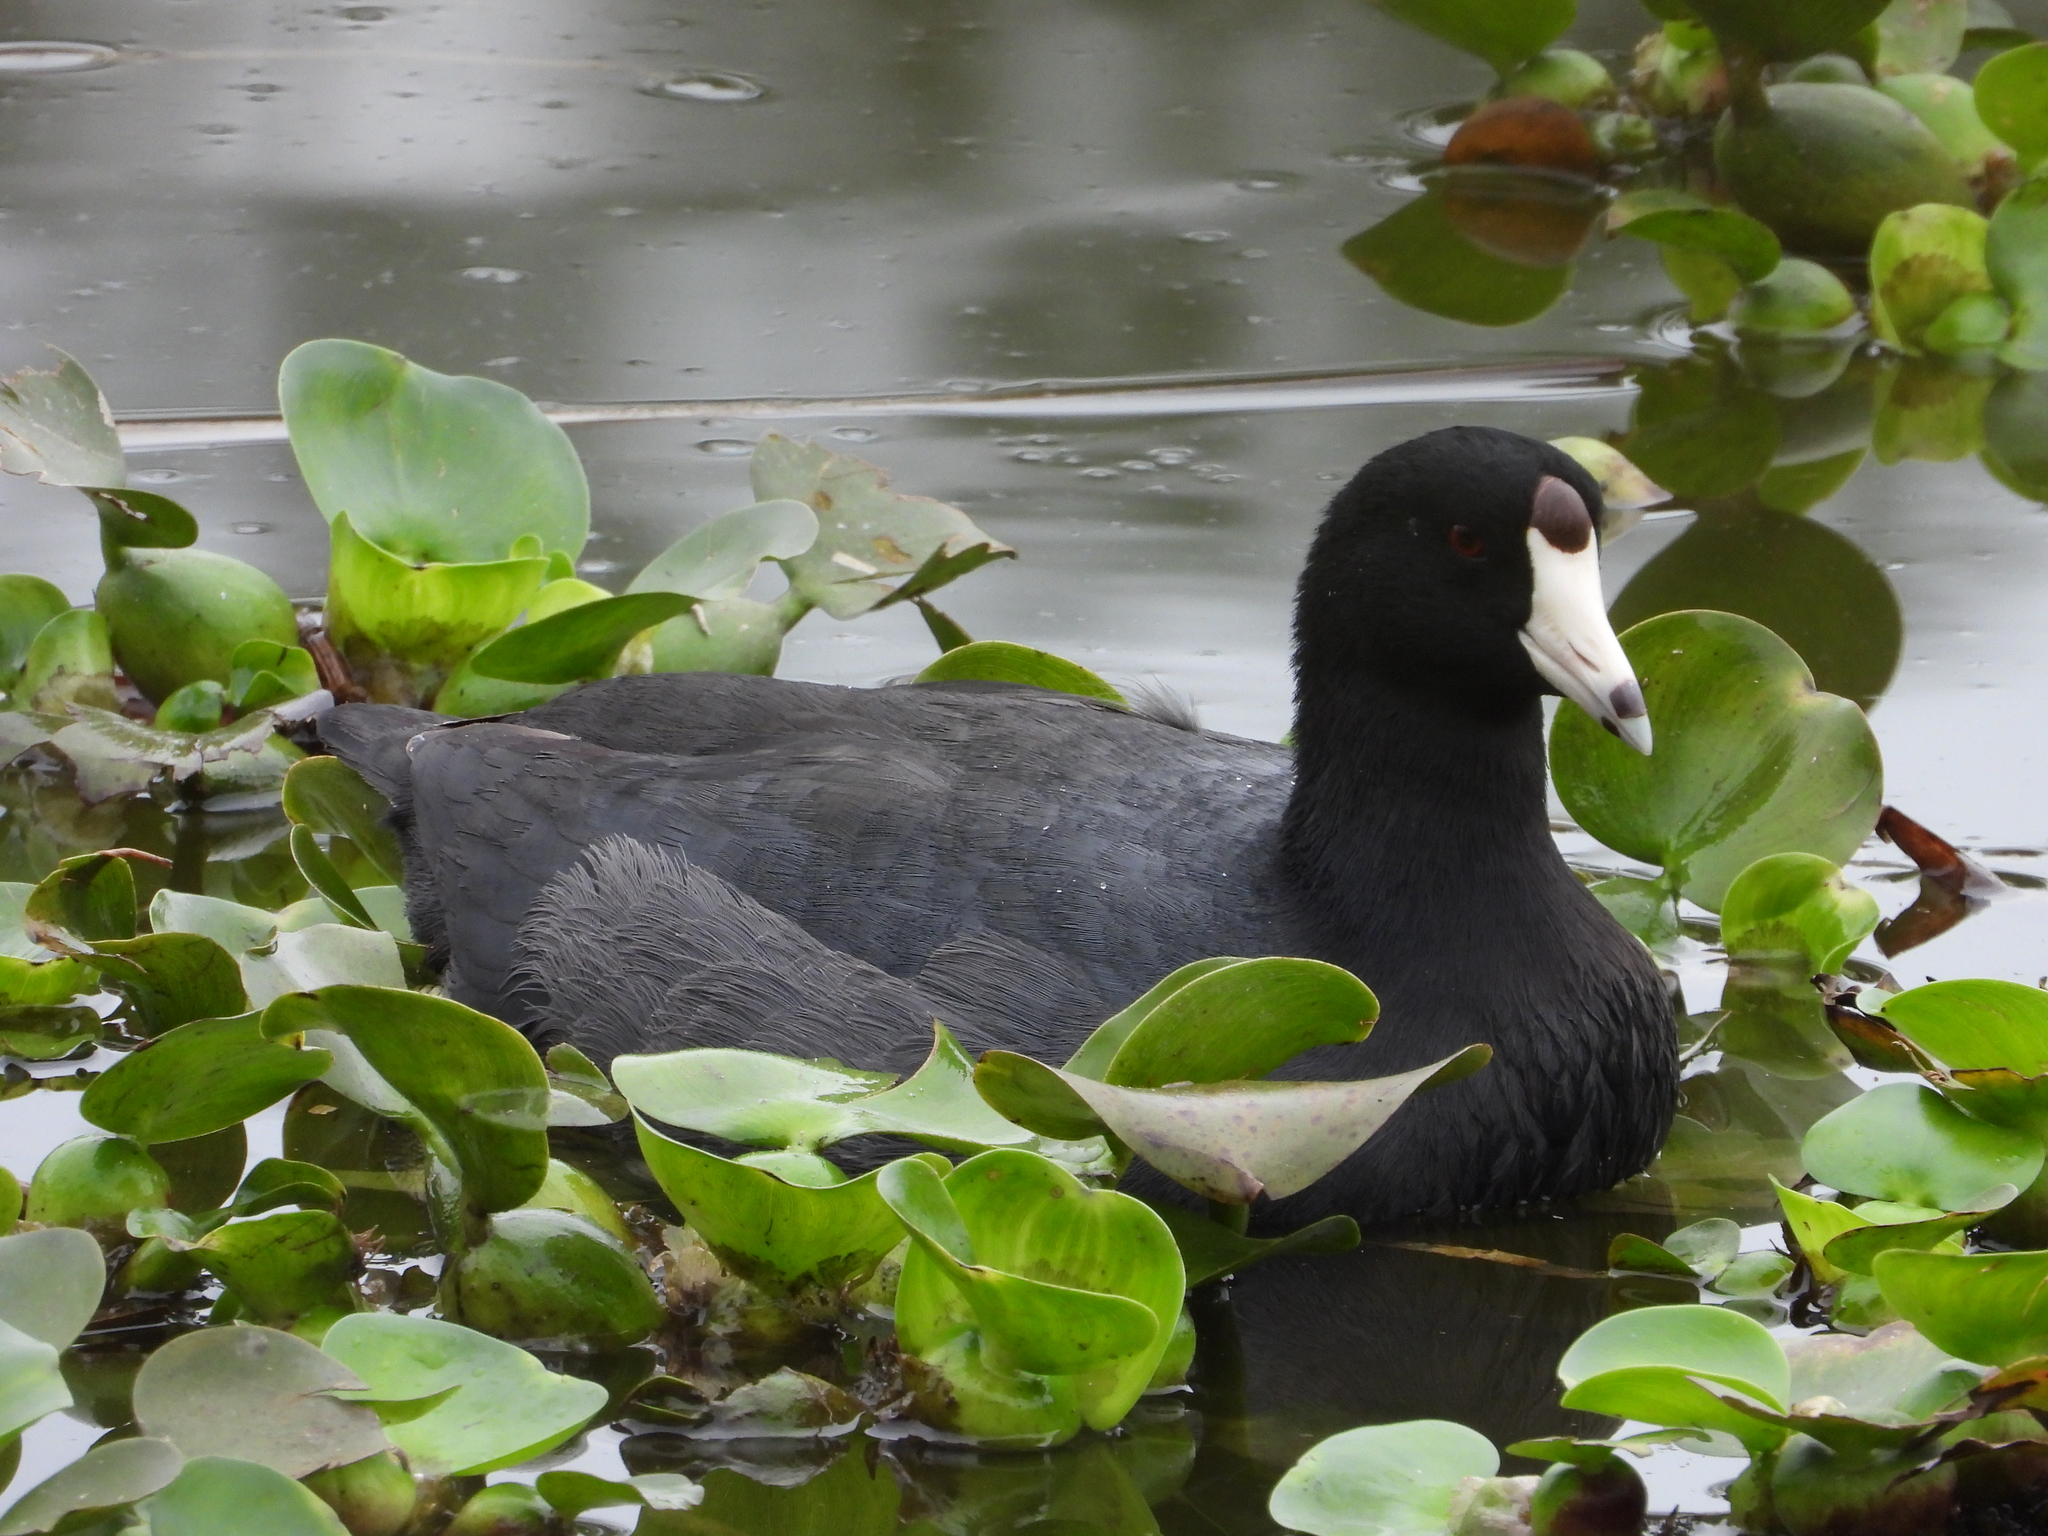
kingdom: Animalia
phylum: Chordata
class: Aves
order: Gruiformes
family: Rallidae
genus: Fulica
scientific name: Fulica americana
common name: American coot
